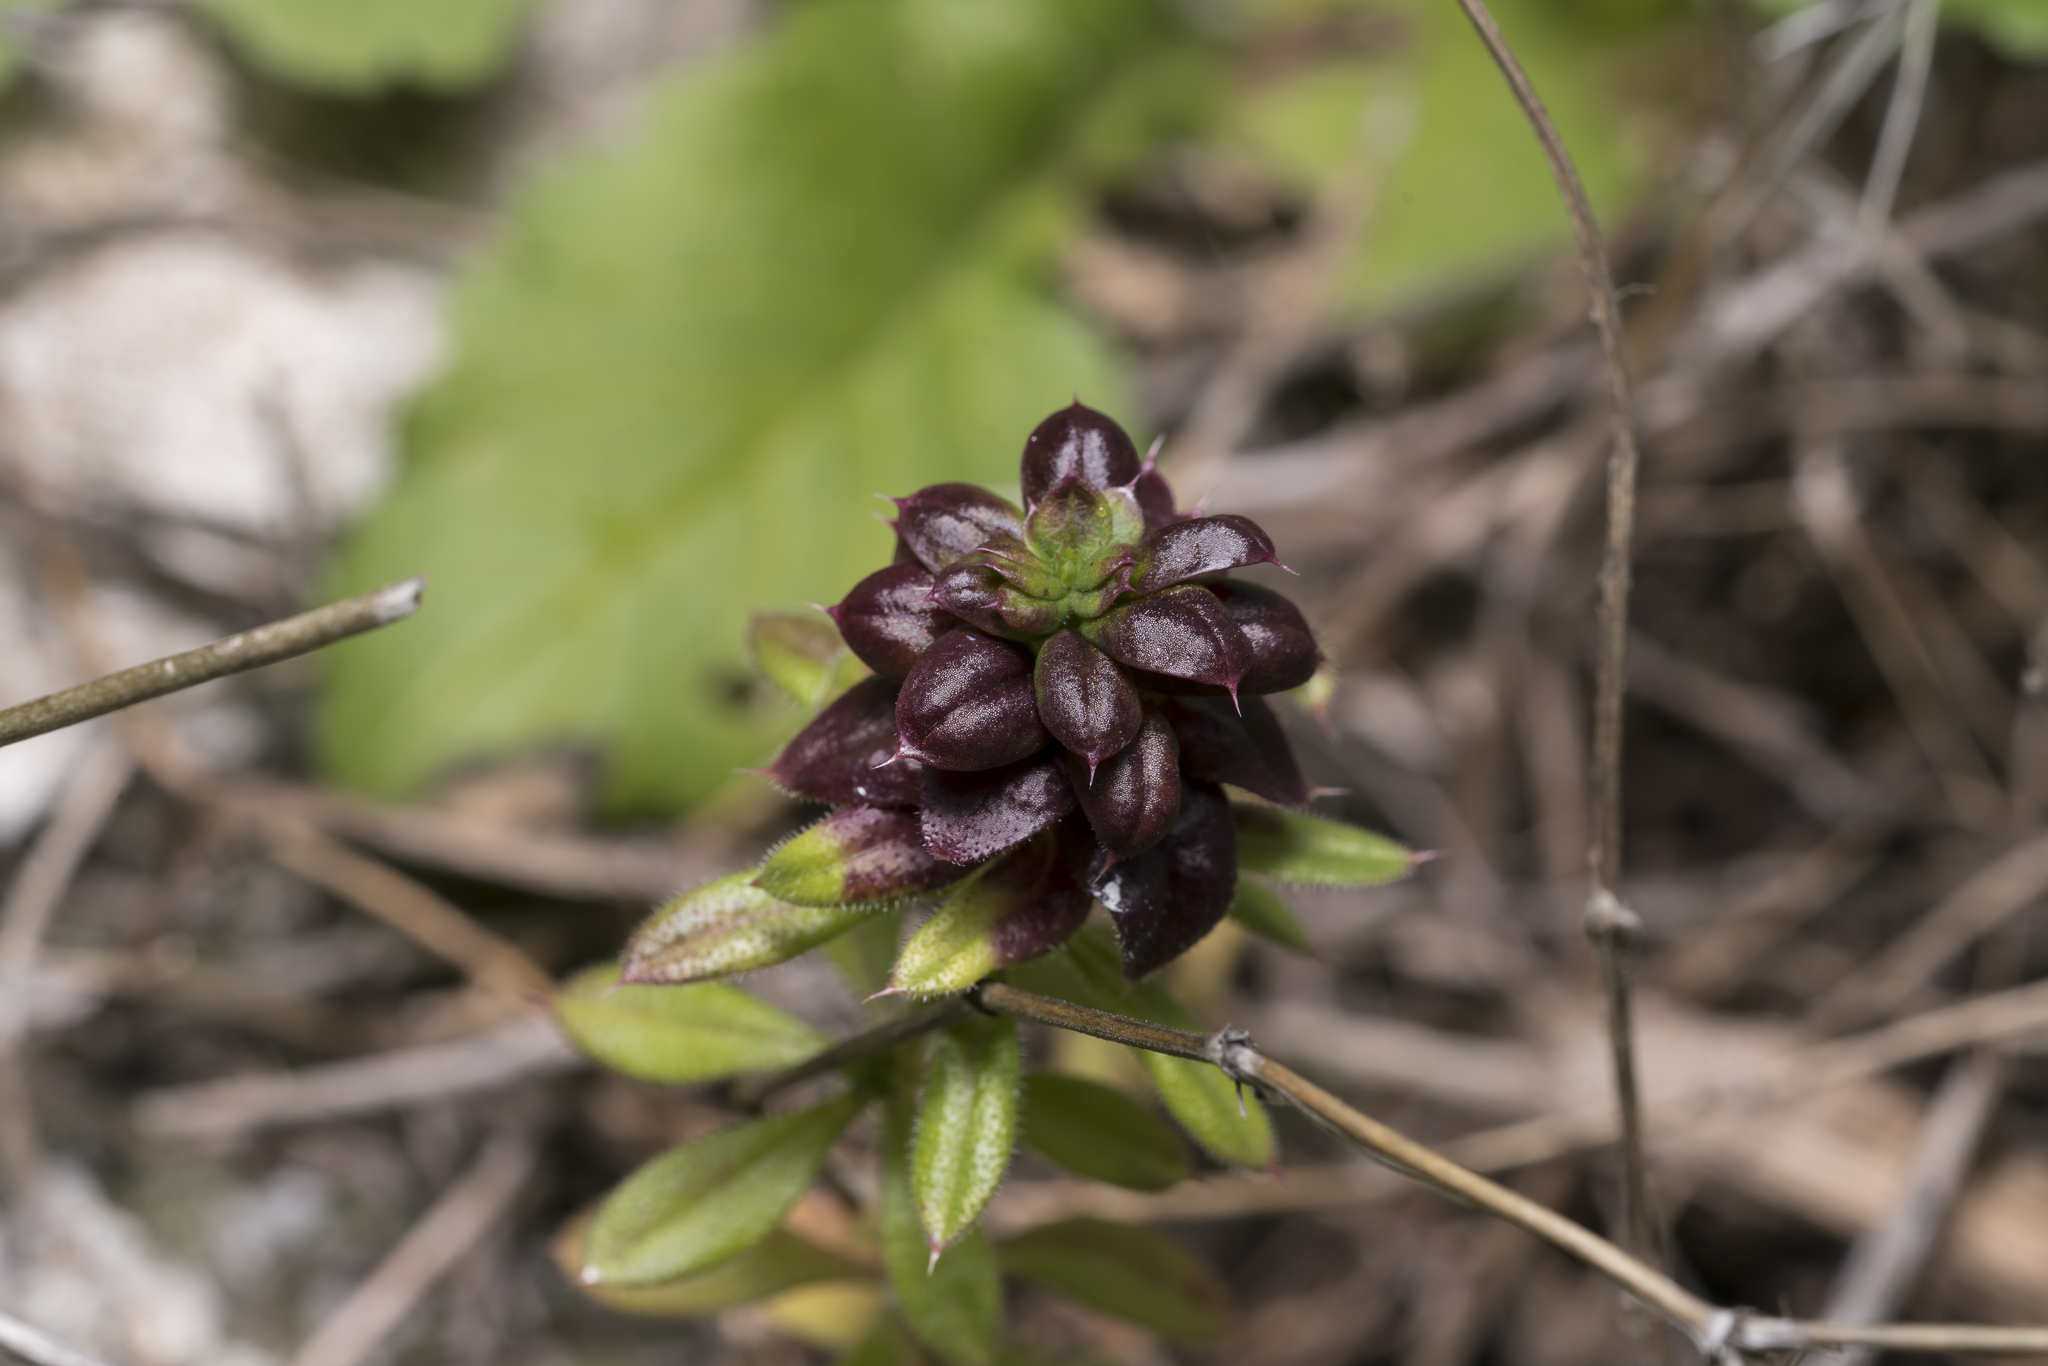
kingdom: Animalia
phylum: Arthropoda
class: Insecta
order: Hemiptera
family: Triozidae
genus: Trioza
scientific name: Trioza galii
